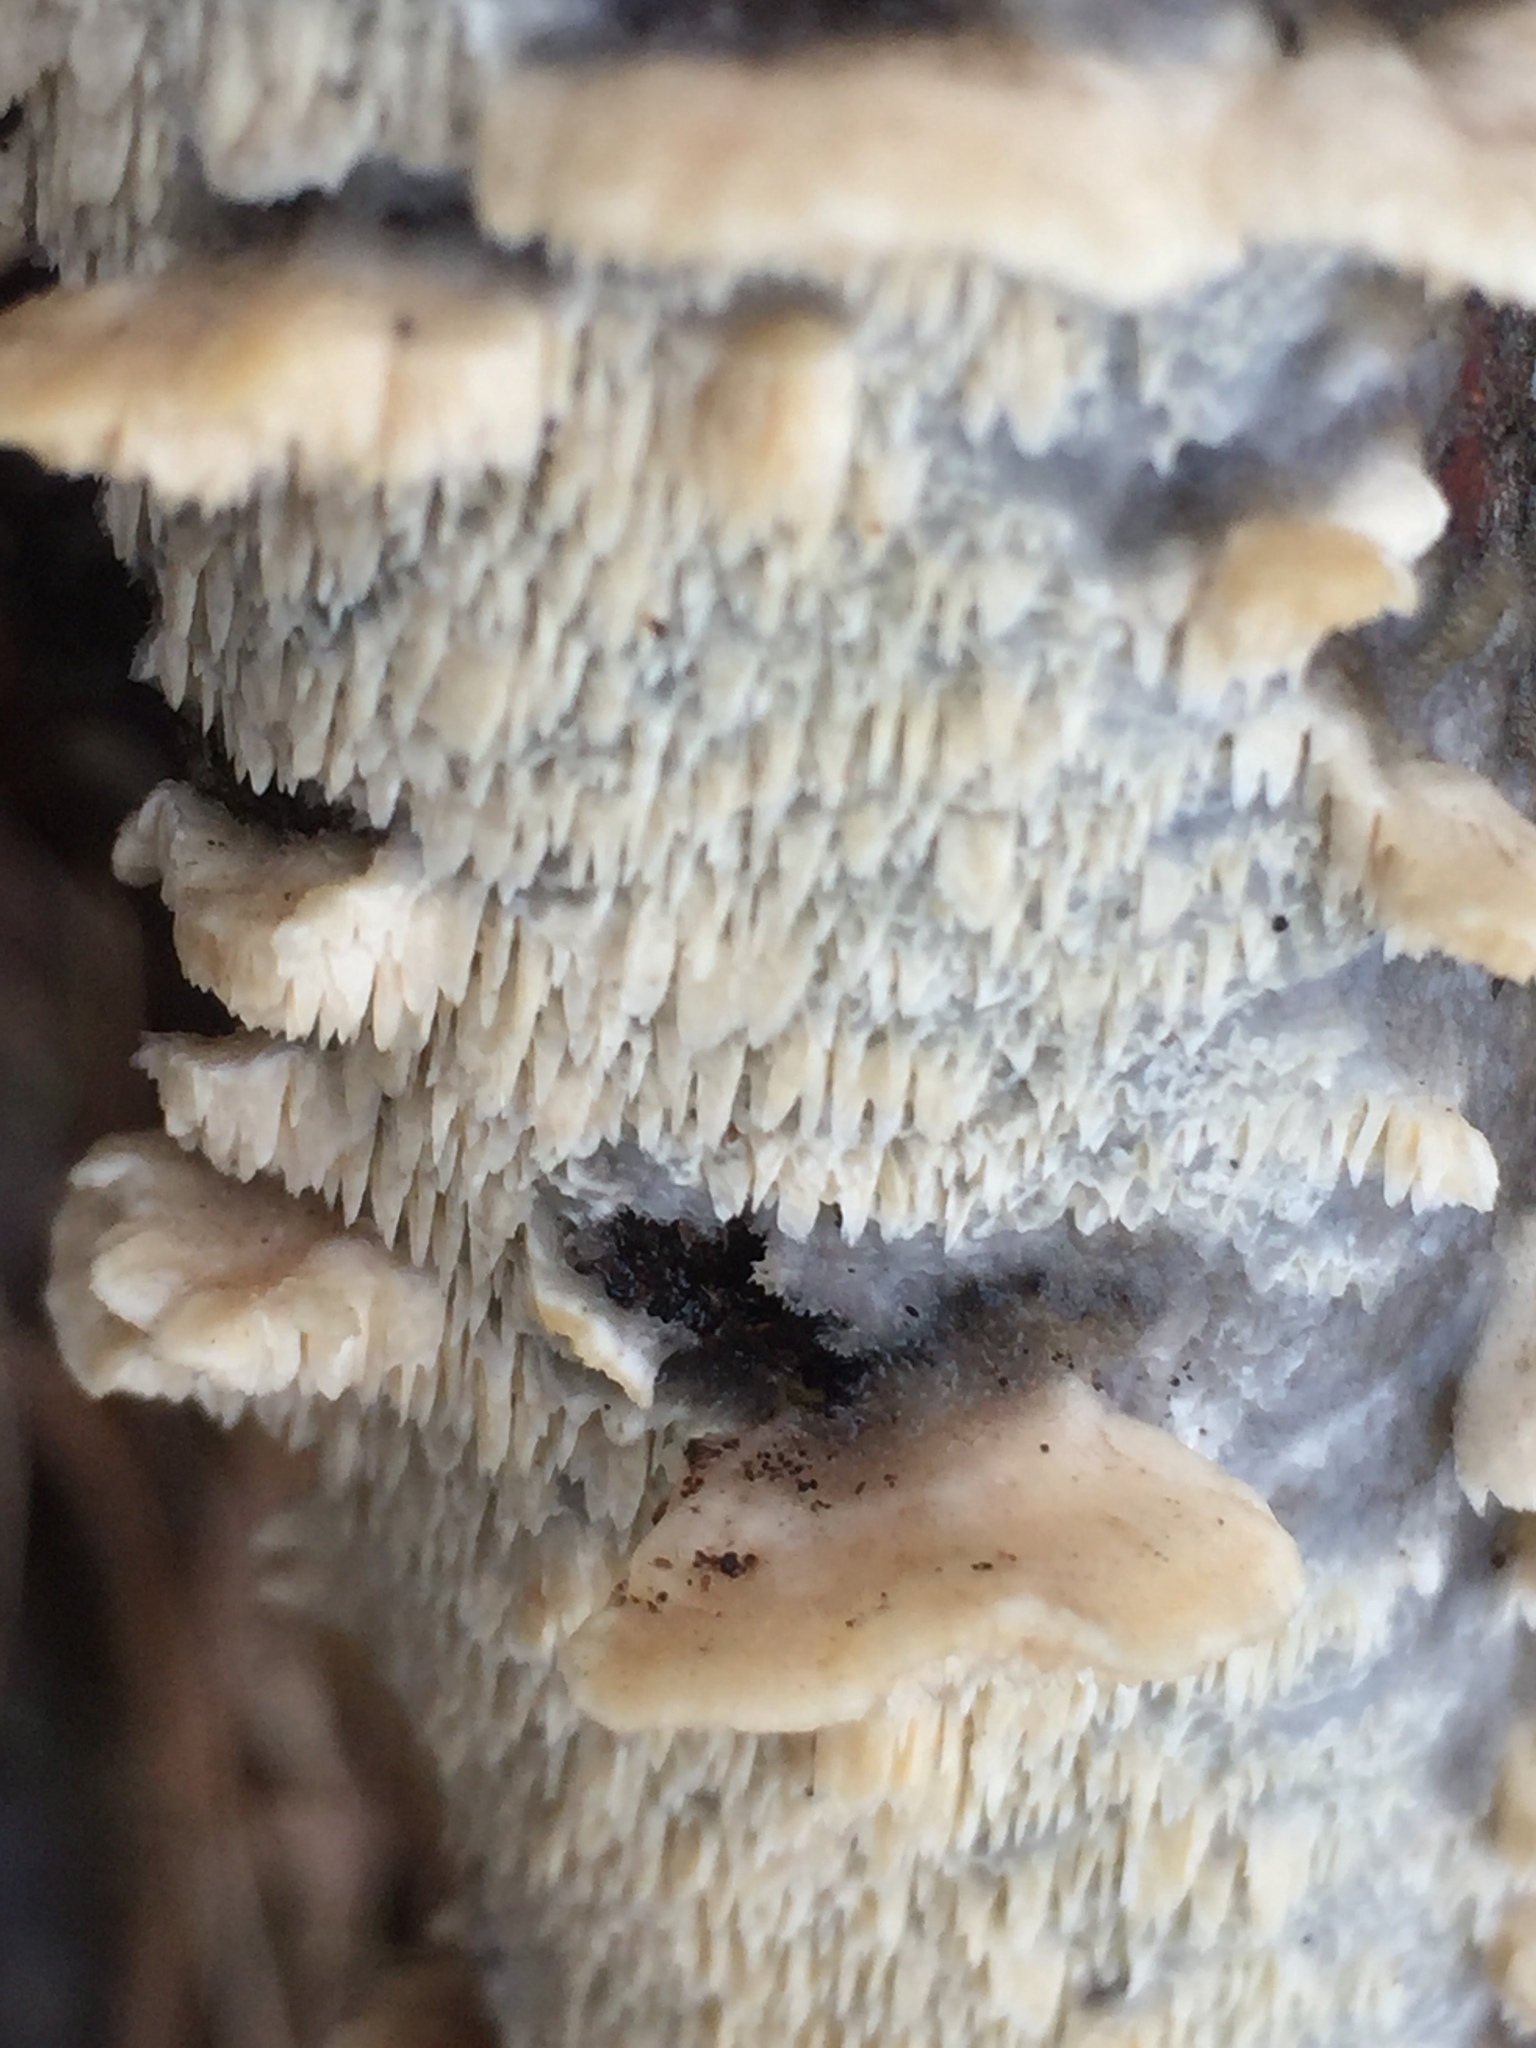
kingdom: Fungi
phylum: Basidiomycota
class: Agaricomycetes
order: Polyporales
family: Irpicaceae
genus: Irpex
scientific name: Irpex lacteus
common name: Milk-white toothed polypore
